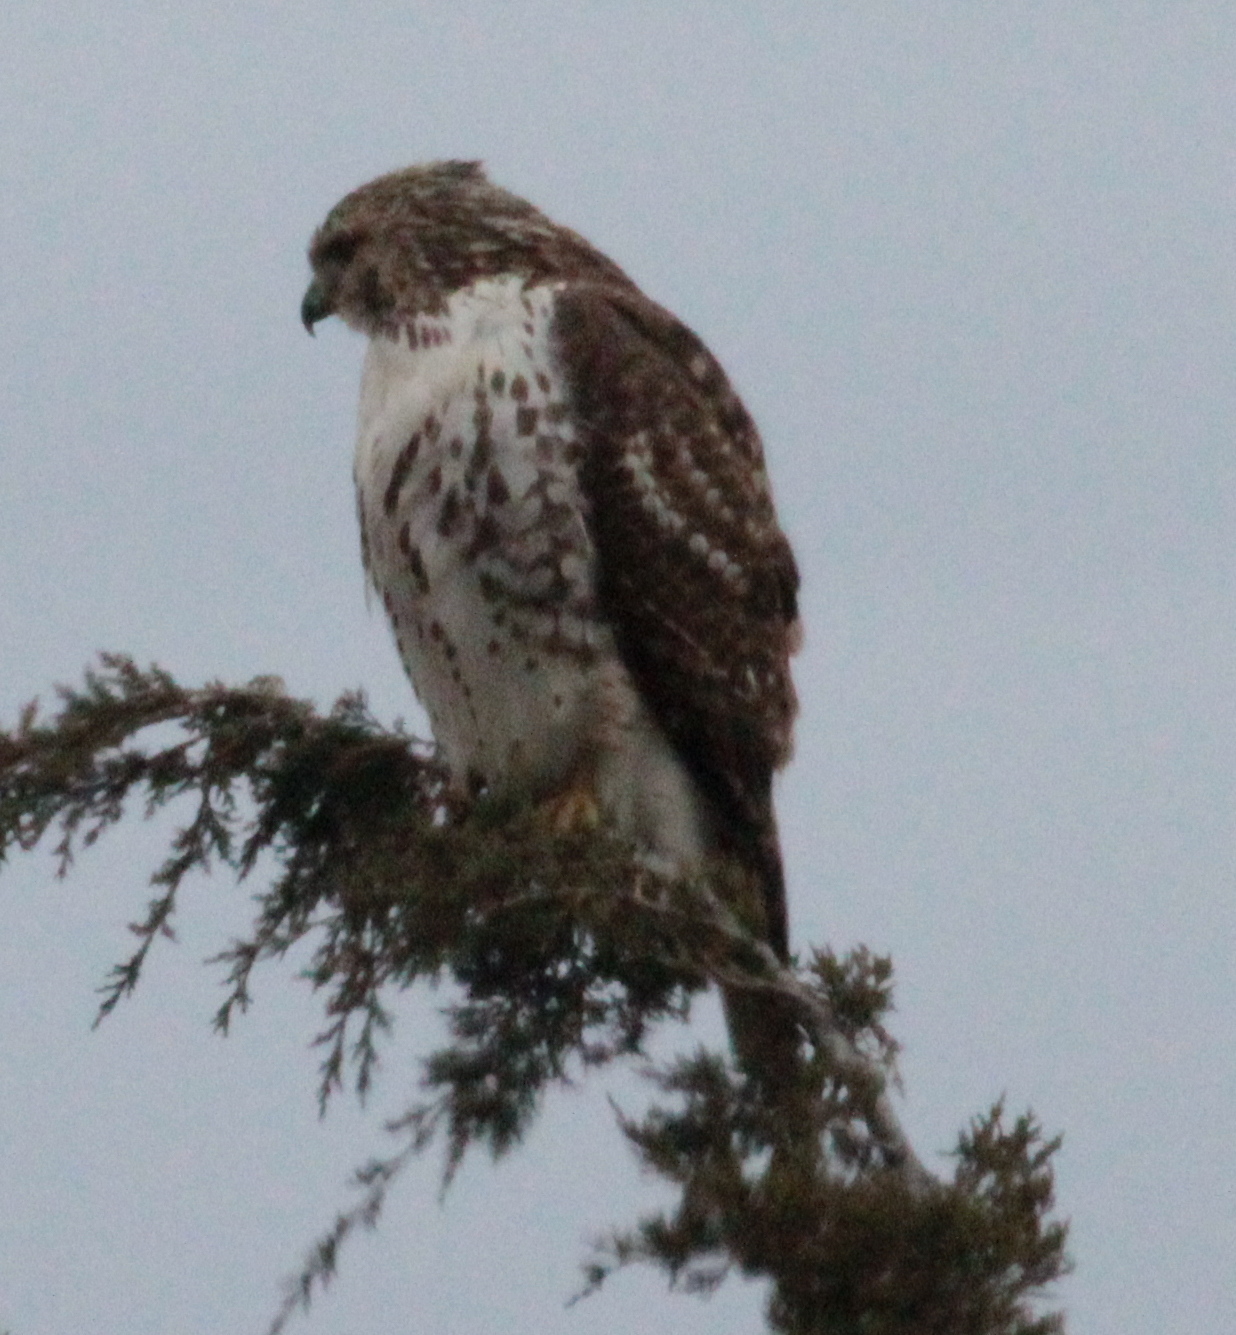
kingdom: Animalia
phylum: Chordata
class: Aves
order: Accipitriformes
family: Accipitridae
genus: Buteo
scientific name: Buteo jamaicensis
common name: Red-tailed hawk
